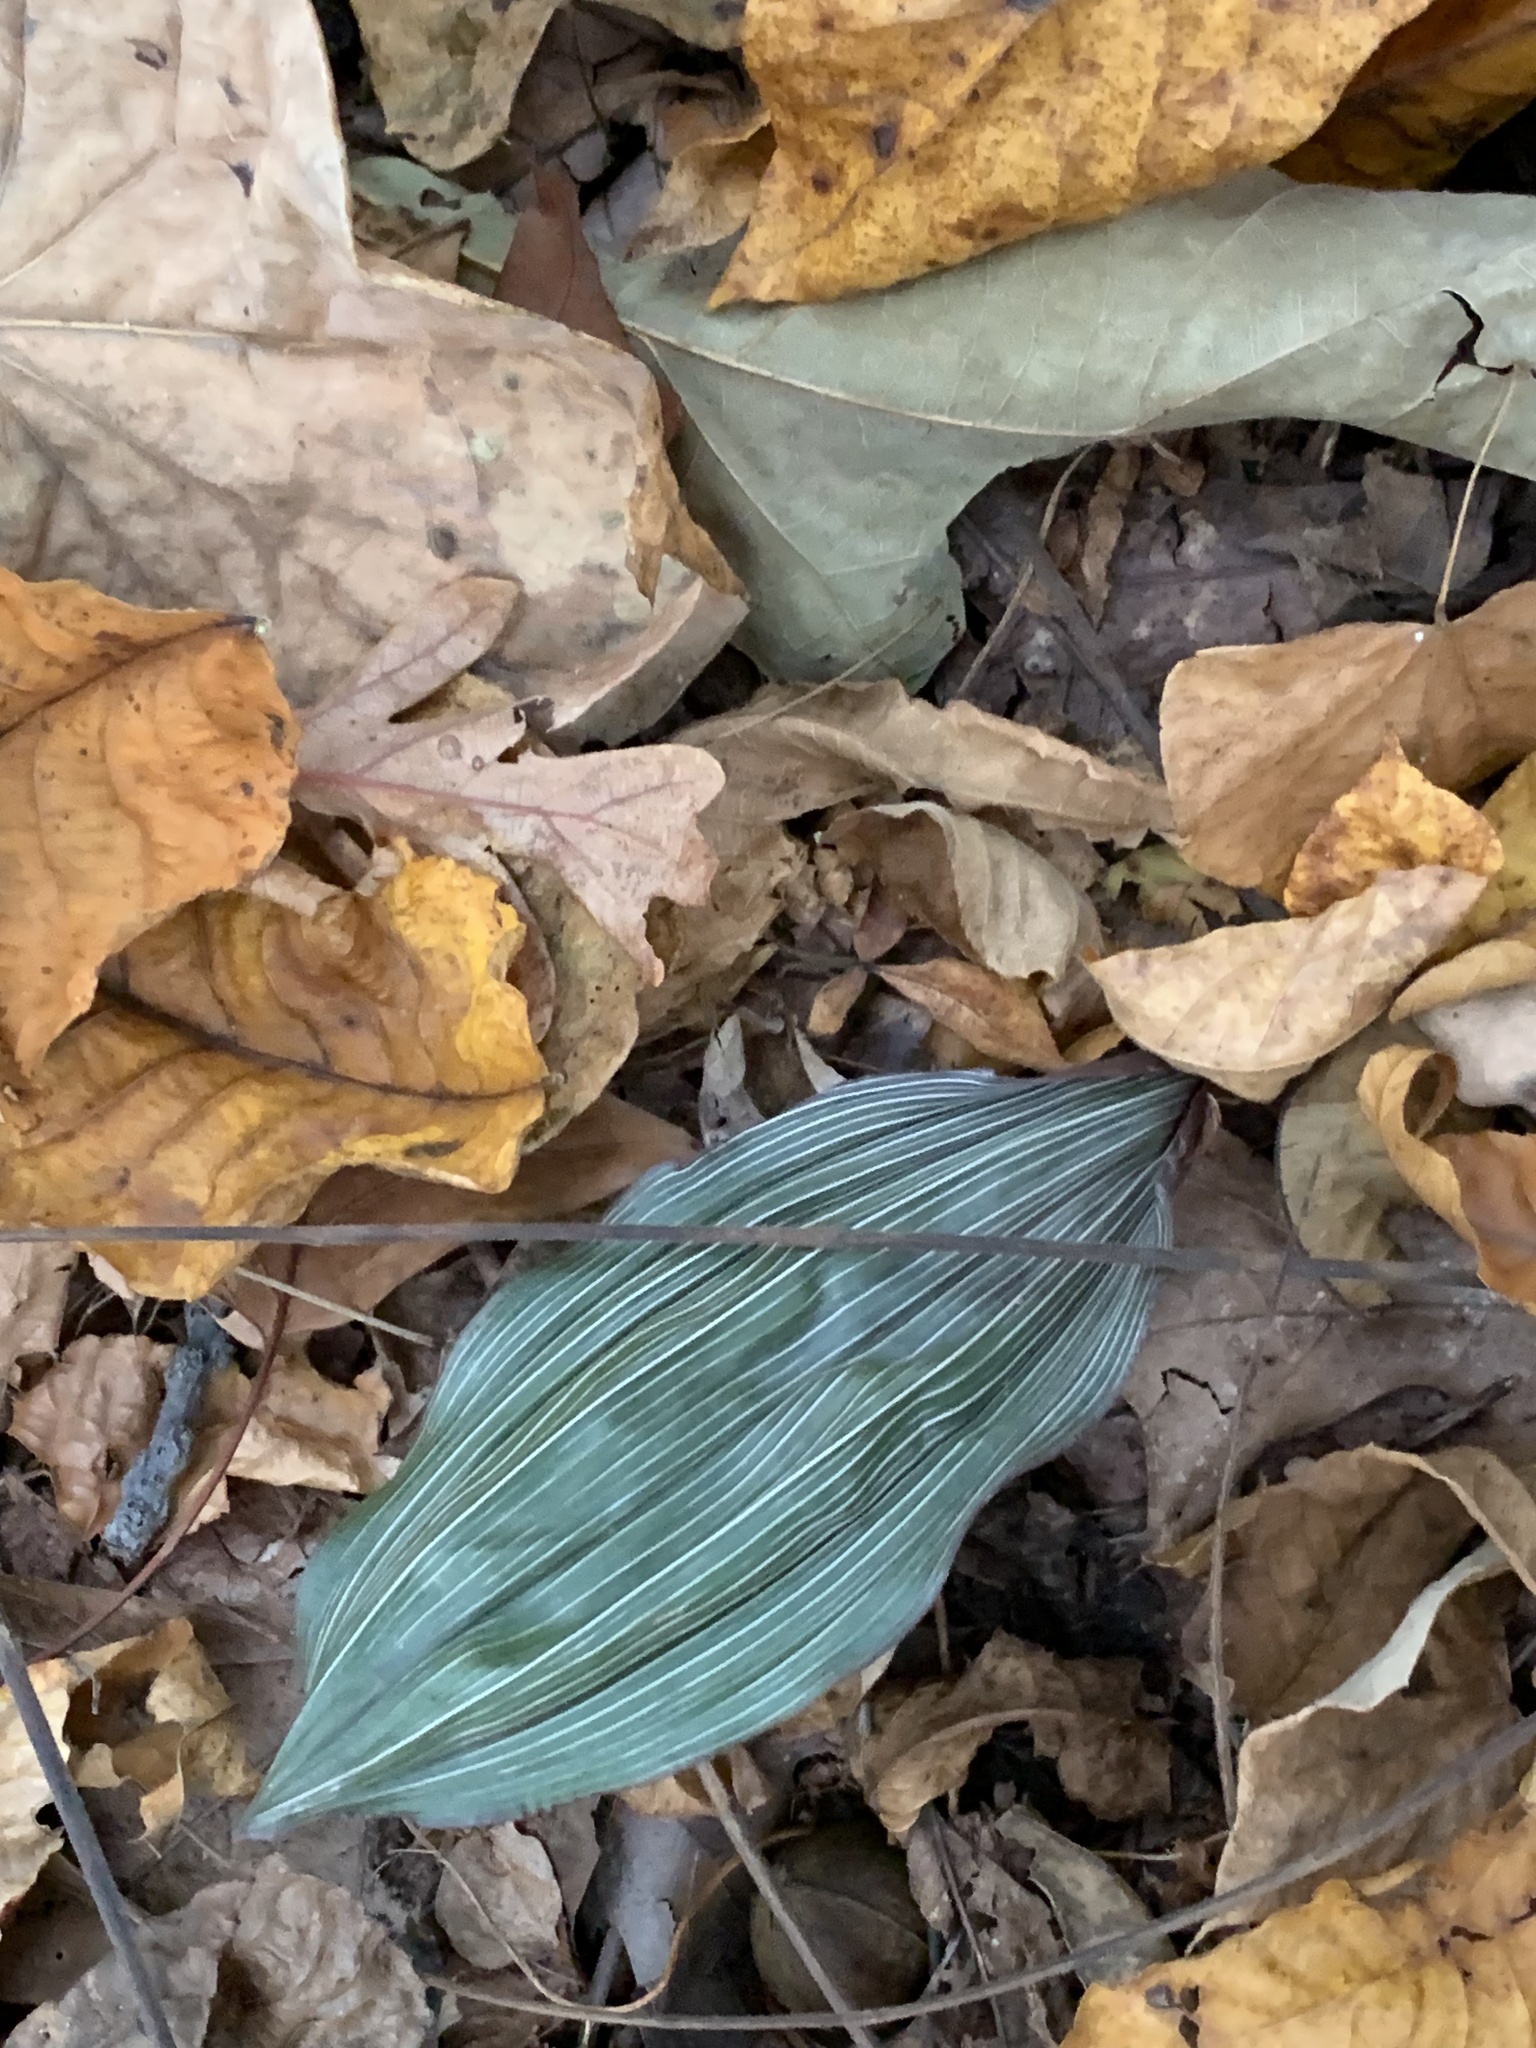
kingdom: Plantae
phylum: Tracheophyta
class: Liliopsida
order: Asparagales
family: Orchidaceae
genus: Aplectrum
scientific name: Aplectrum hyemale
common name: Adam-and-eve
